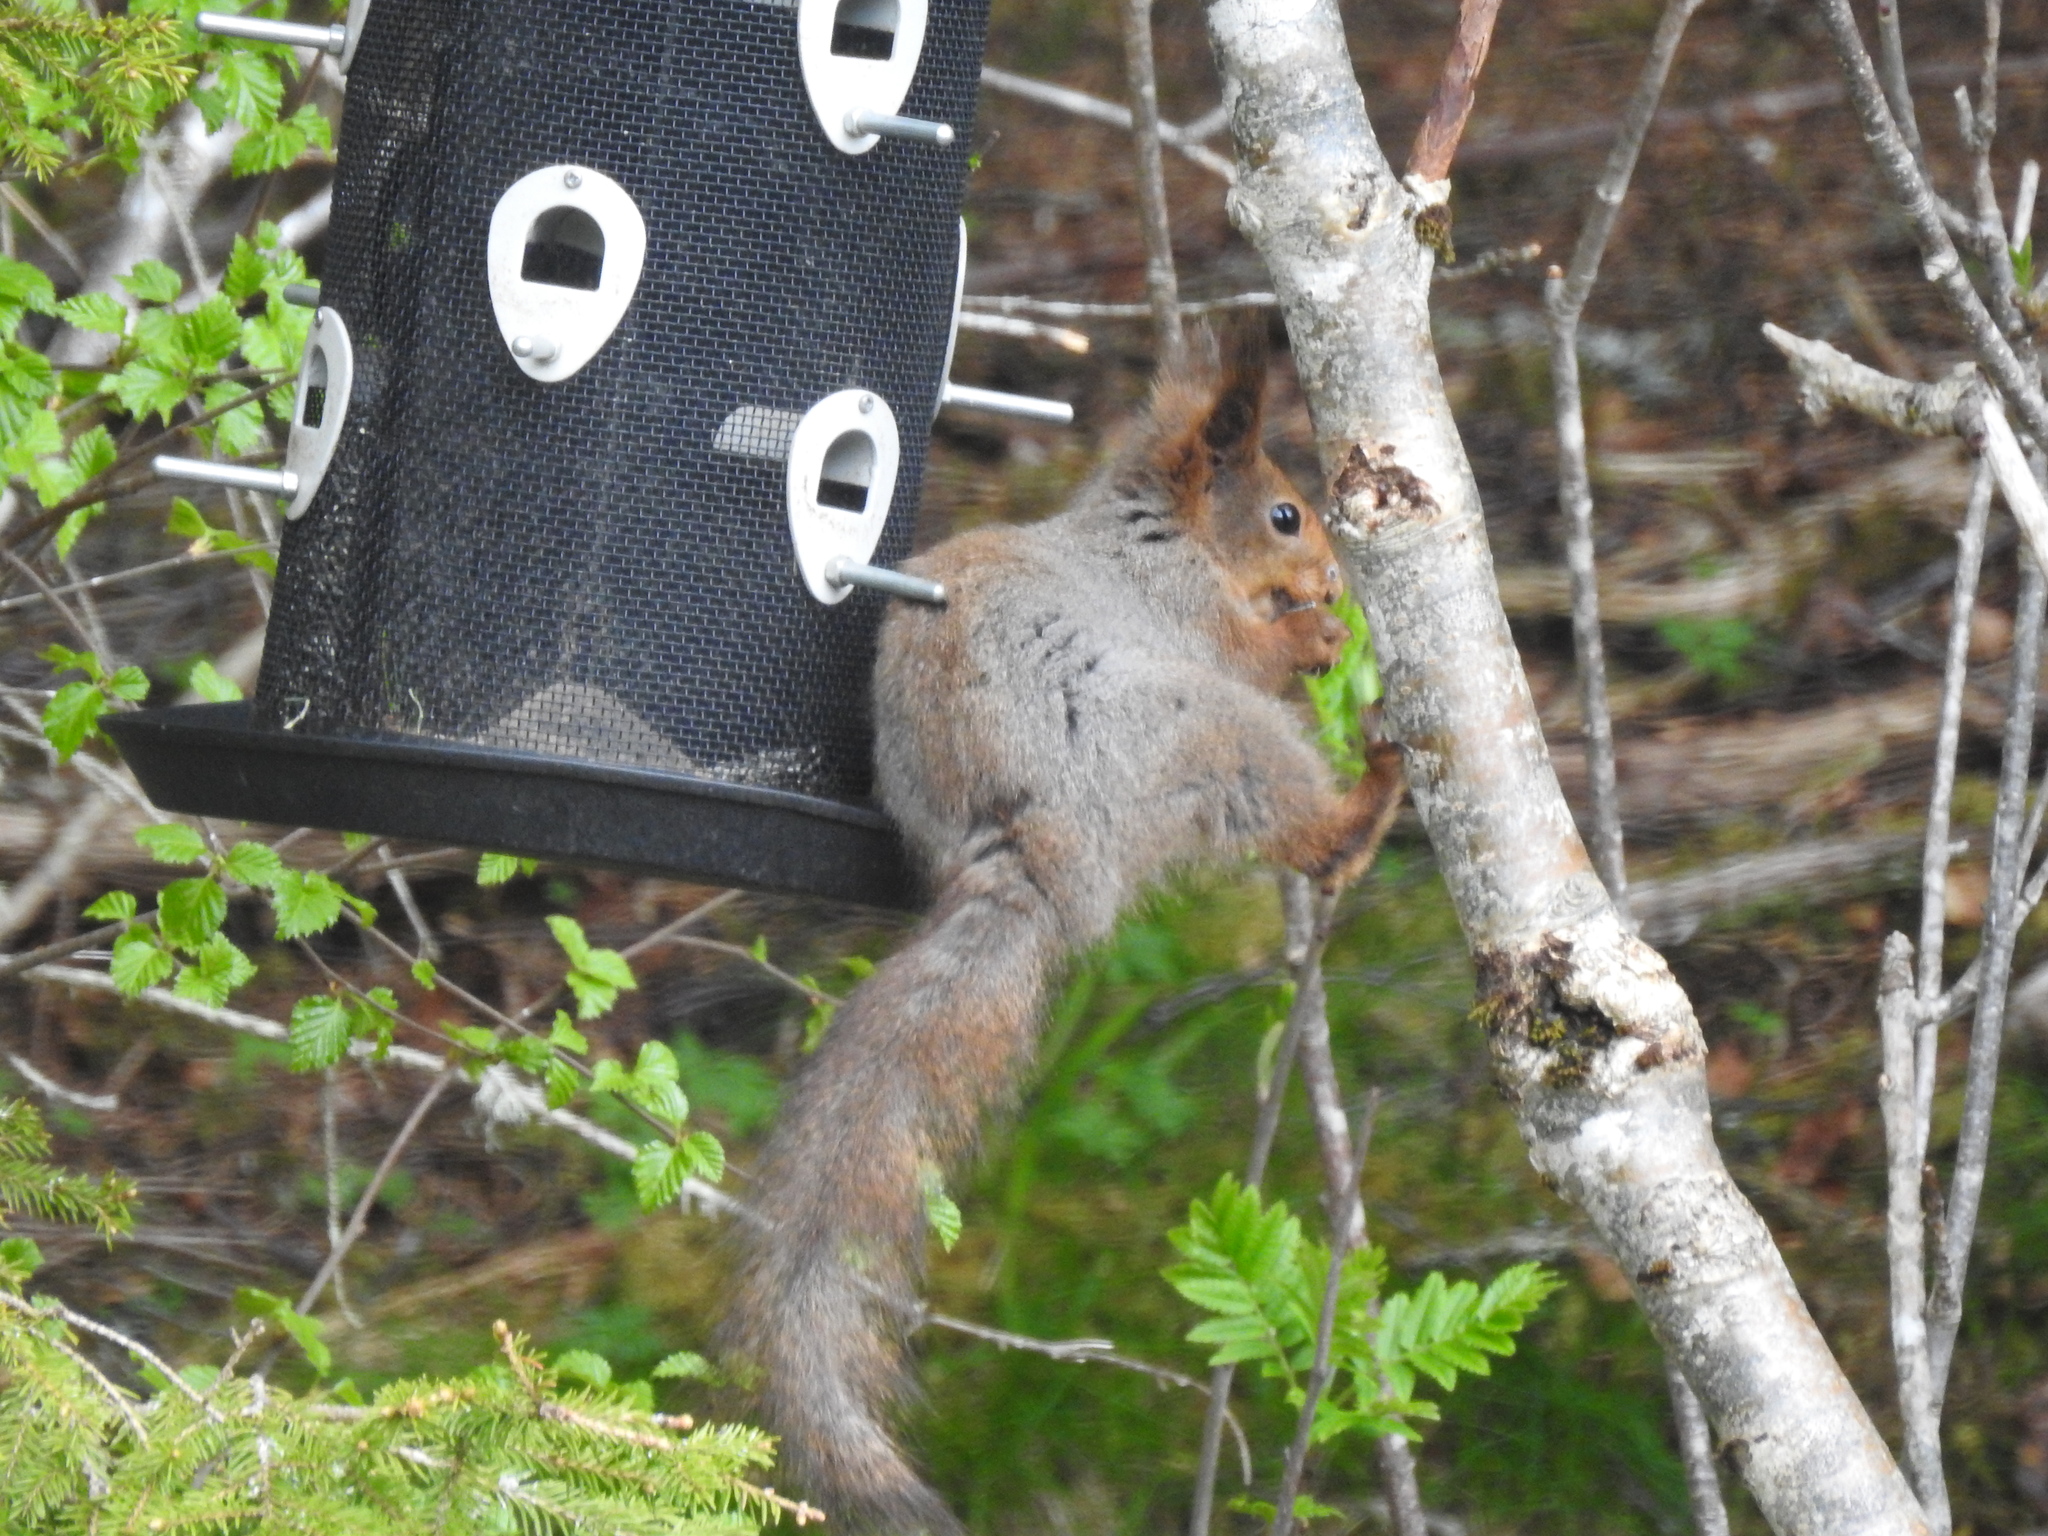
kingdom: Animalia
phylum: Chordata
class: Mammalia
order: Rodentia
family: Sciuridae
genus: Sciurus
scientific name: Sciurus vulgaris
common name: Eurasian red squirrel
